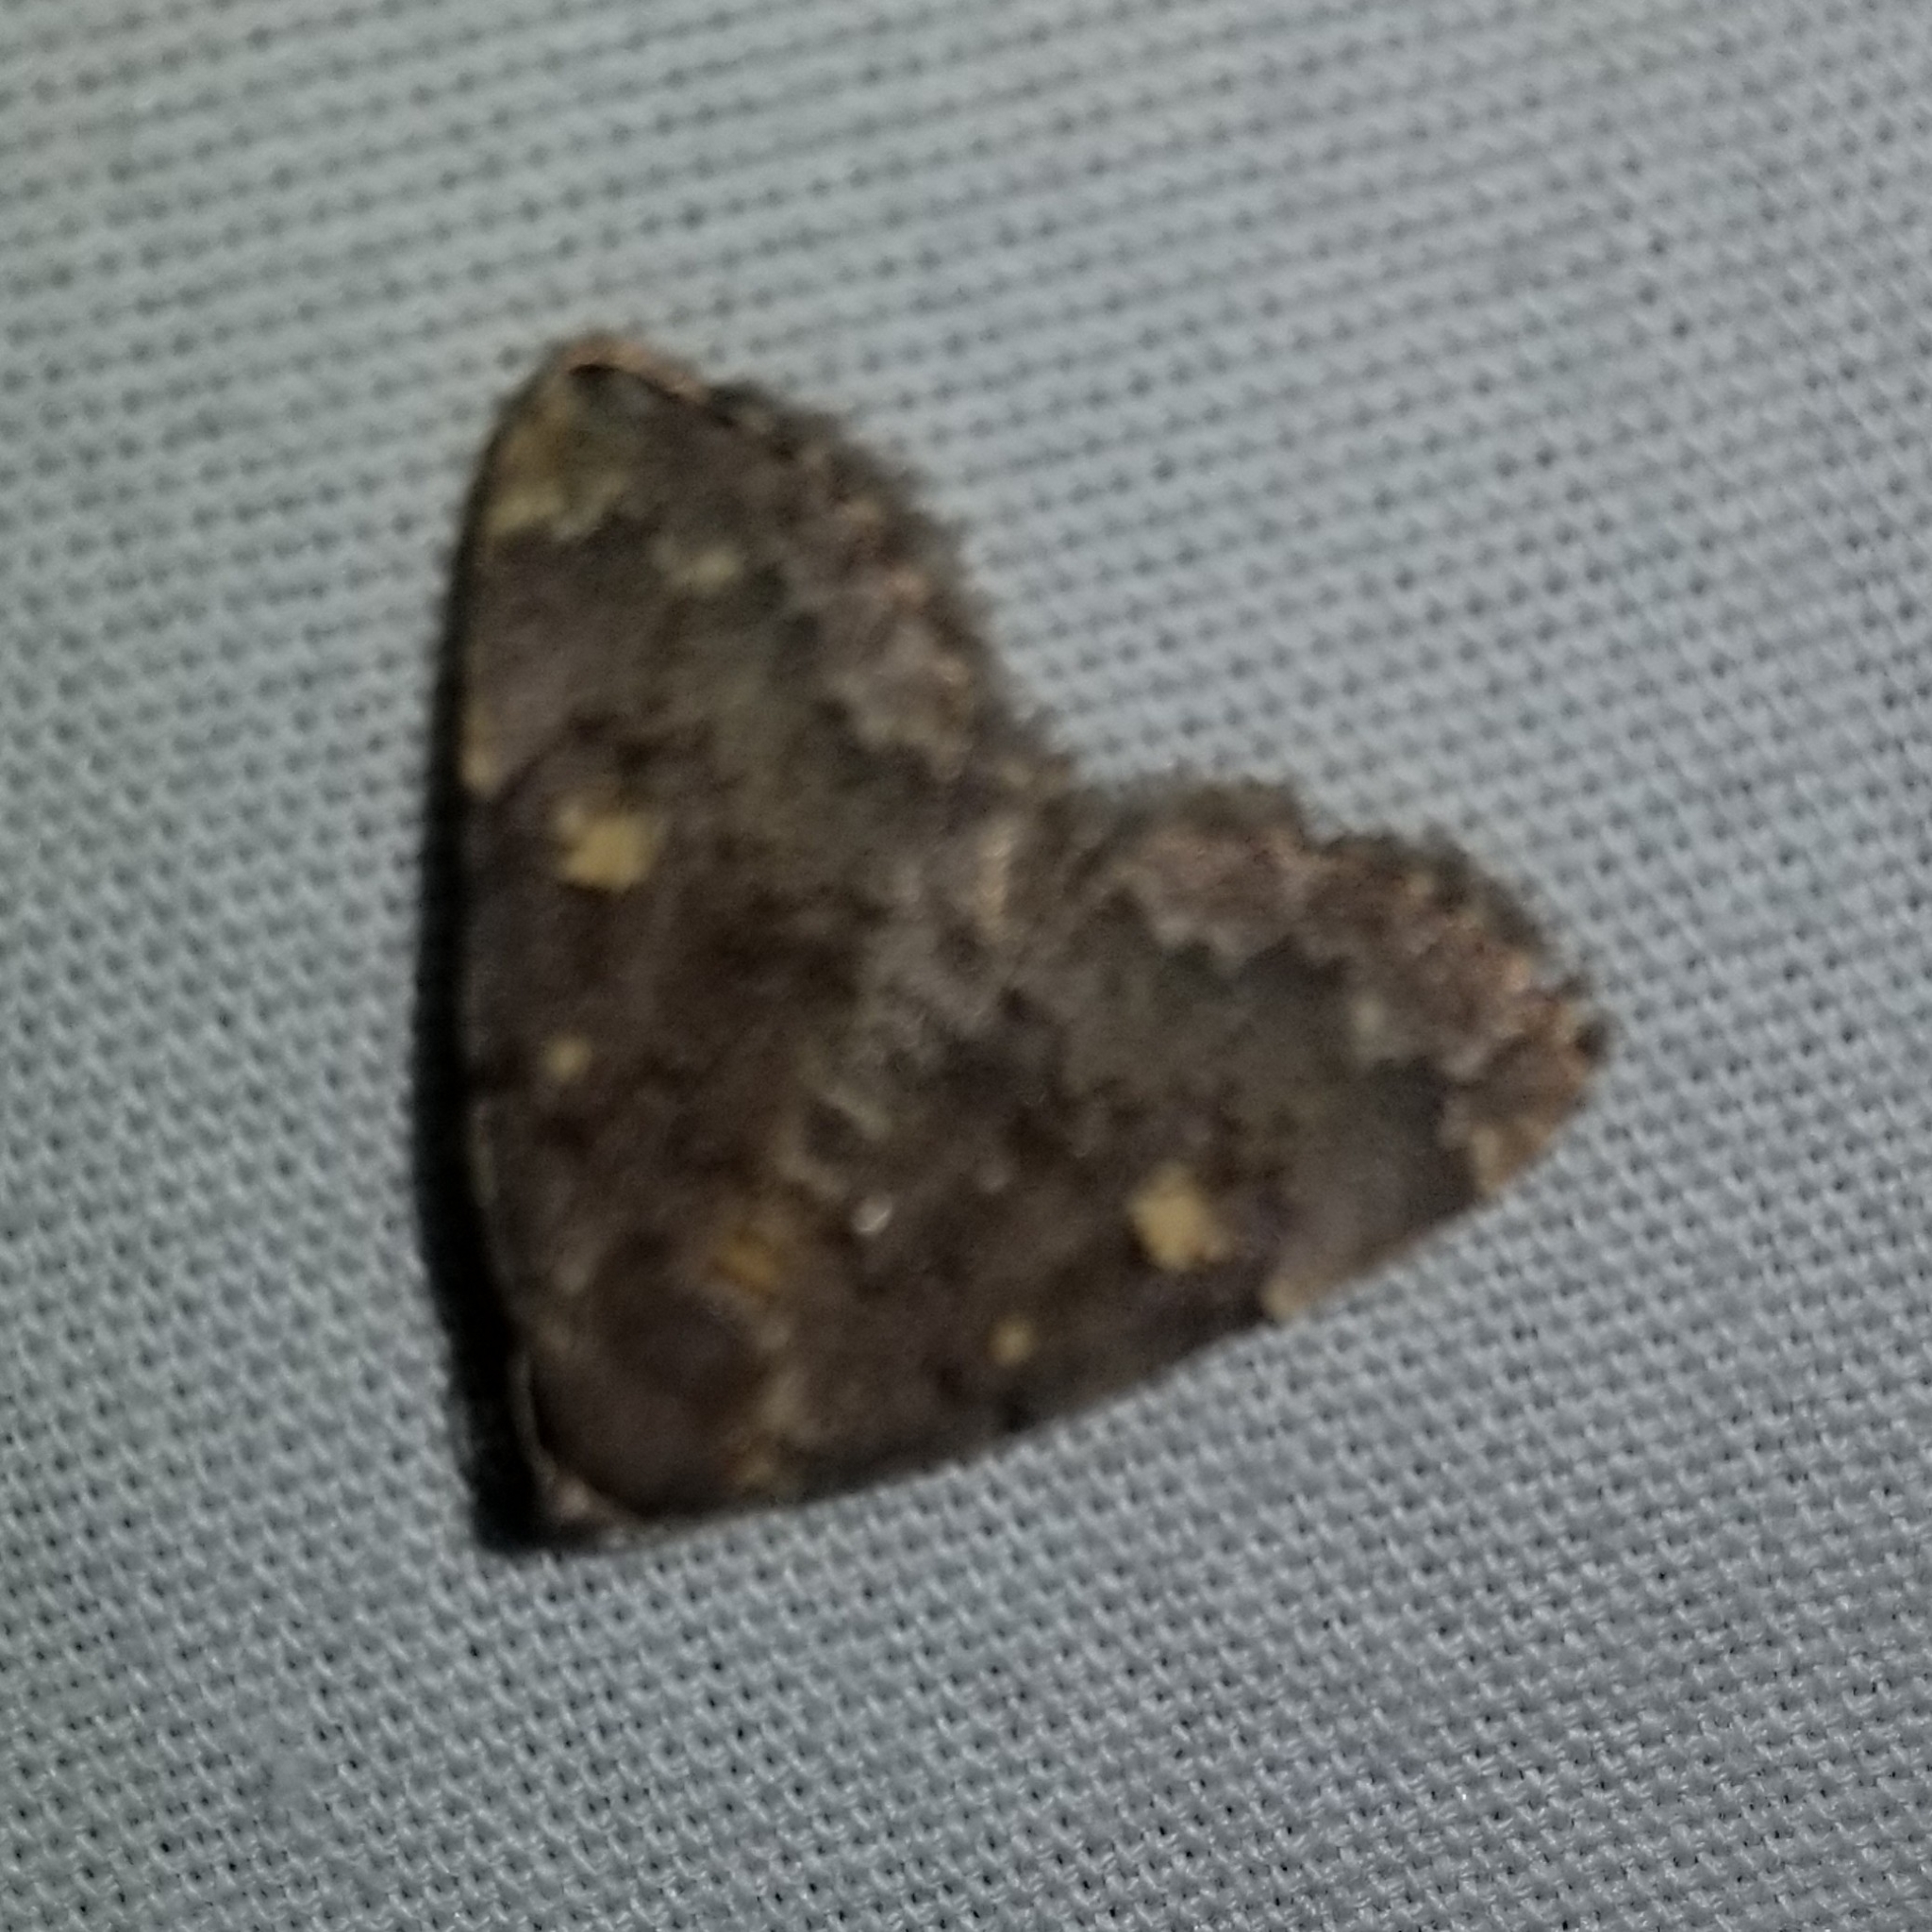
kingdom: Animalia
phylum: Arthropoda
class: Insecta
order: Lepidoptera
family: Erebidae
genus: Idia
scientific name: Idia aemula
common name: Common idia moth
